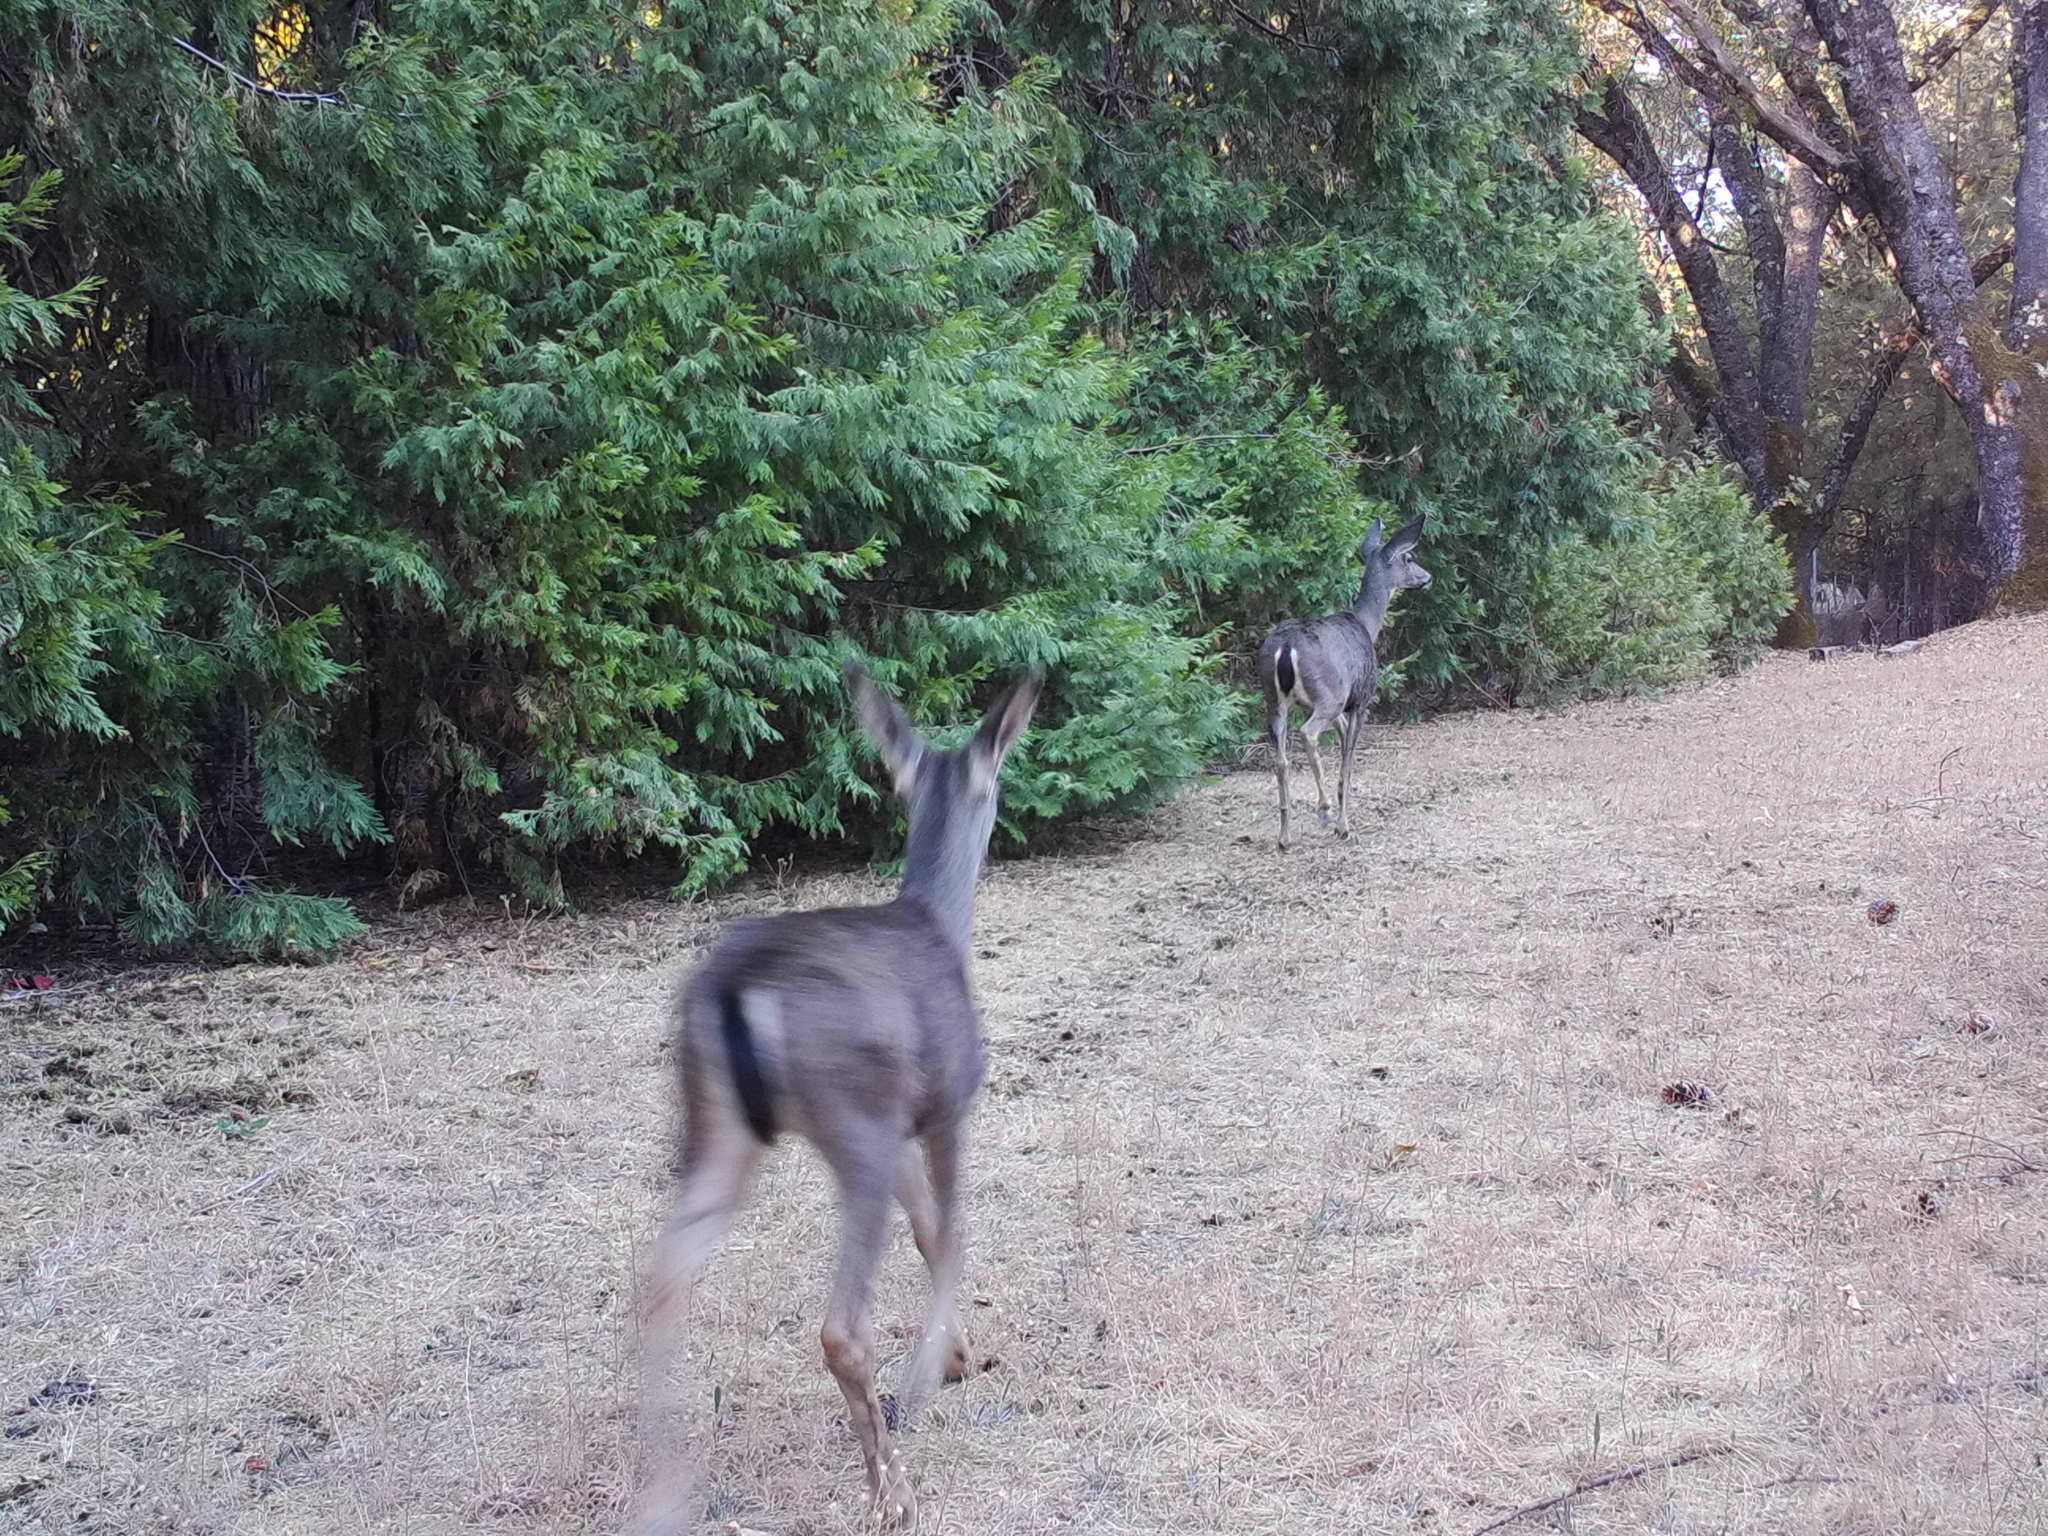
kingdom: Animalia
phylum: Chordata
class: Mammalia
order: Artiodactyla
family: Cervidae
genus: Odocoileus
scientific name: Odocoileus hemionus
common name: Mule deer
